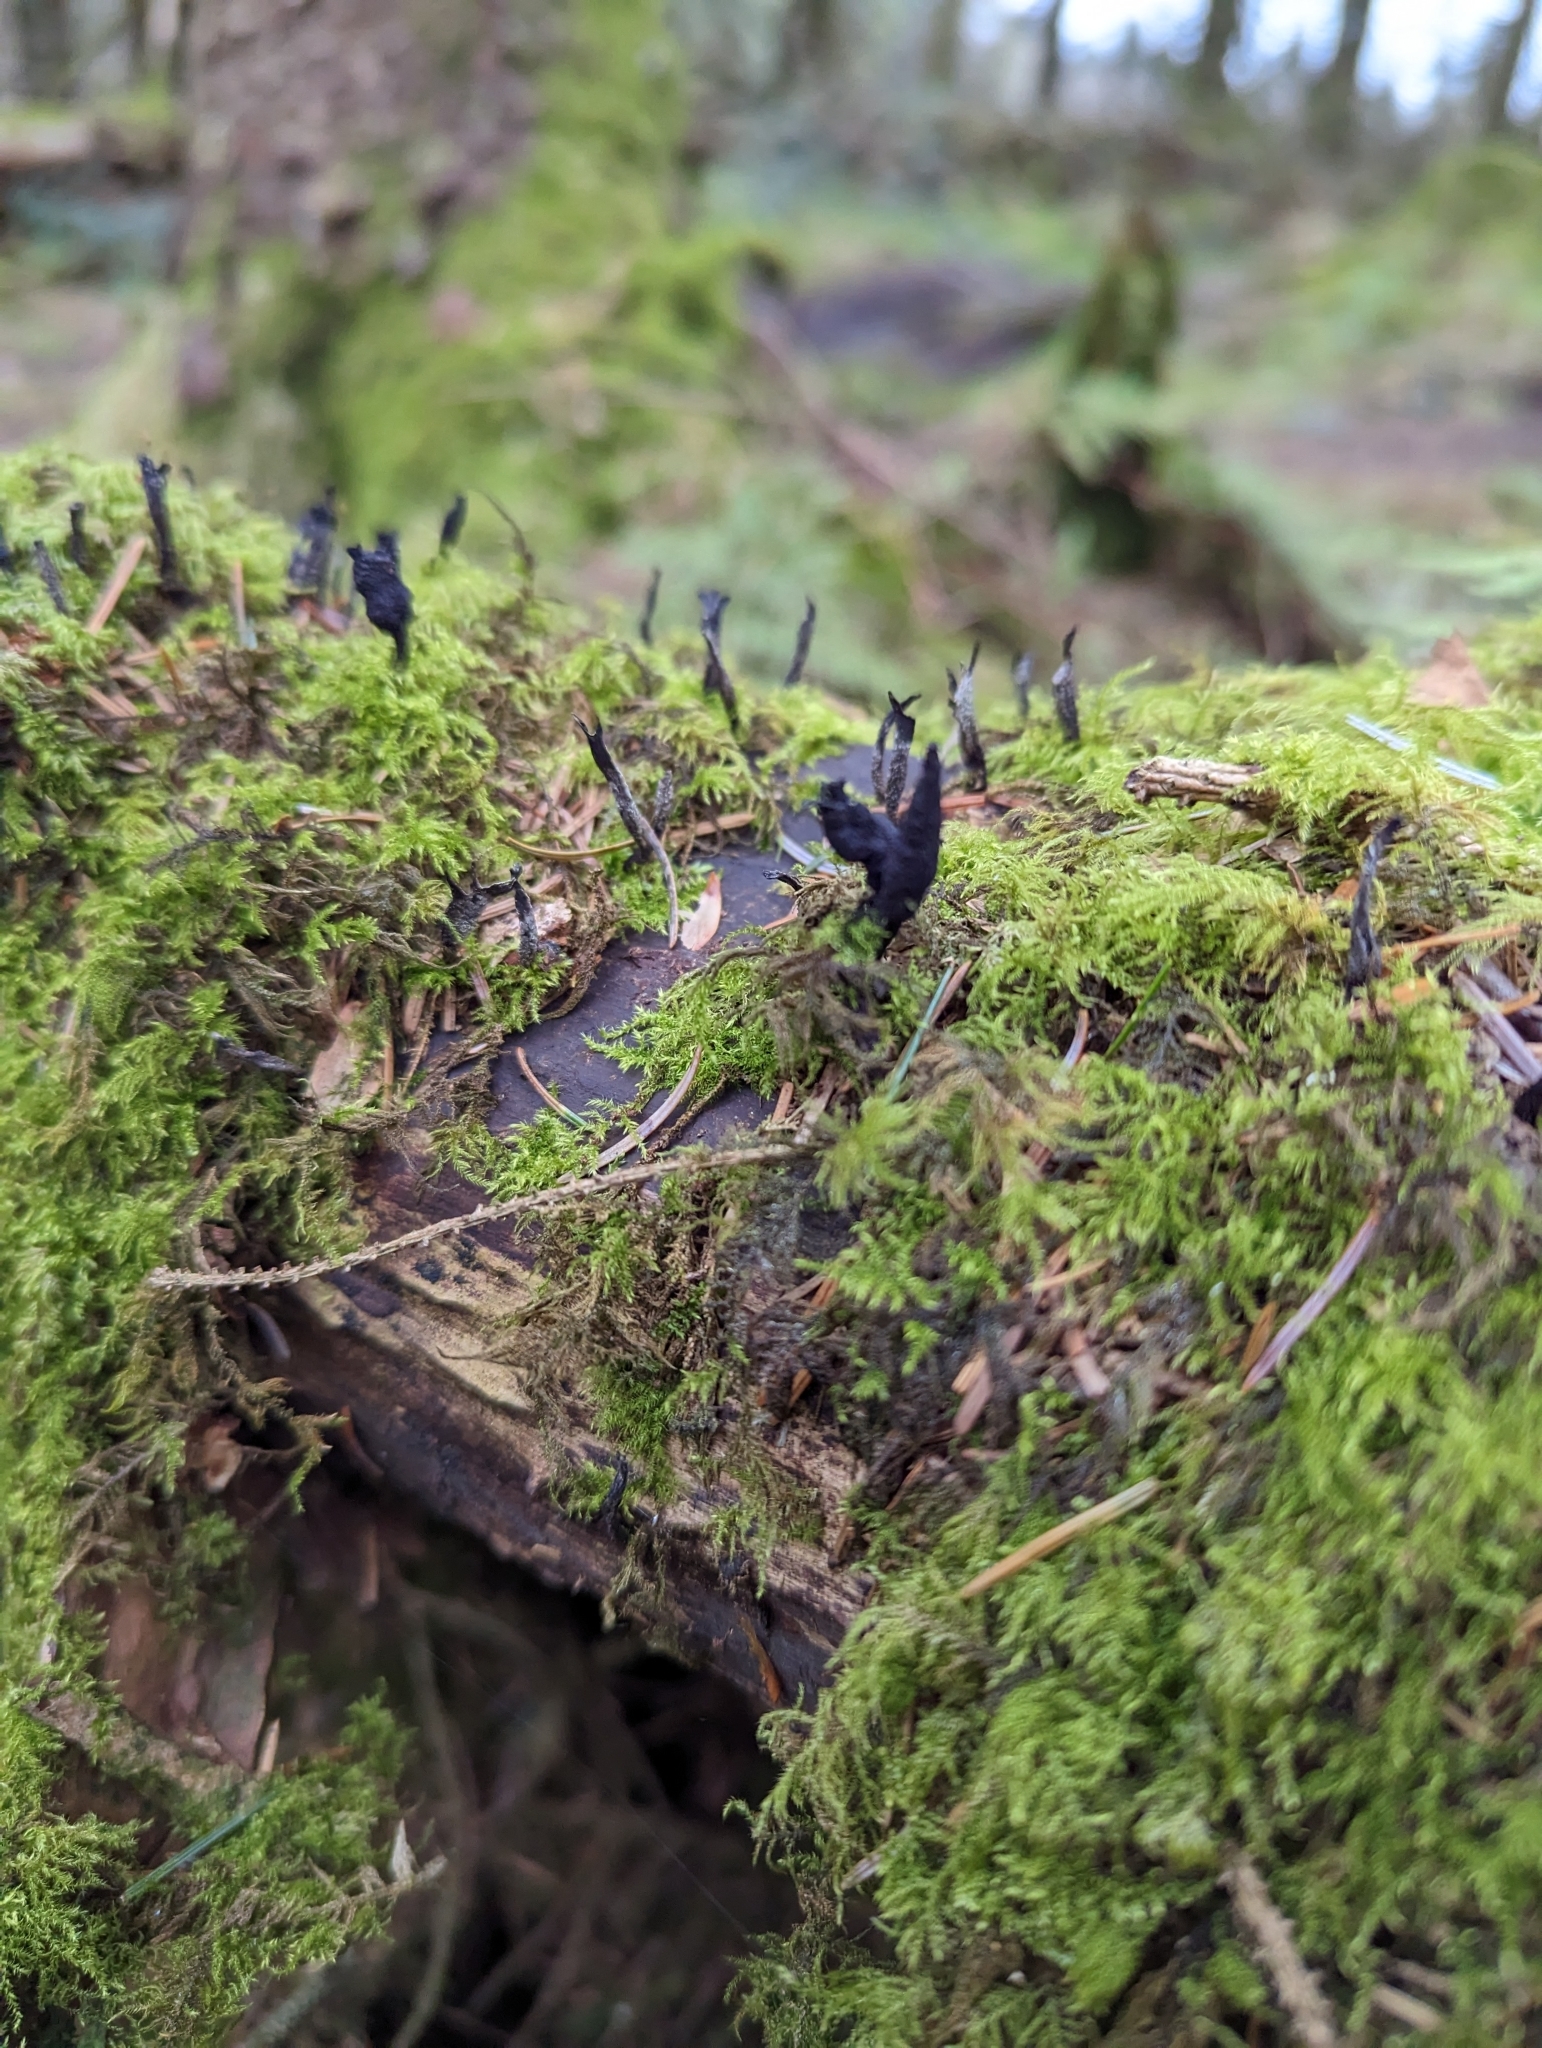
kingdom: Fungi
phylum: Ascomycota
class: Sordariomycetes
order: Xylariales
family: Xylariaceae
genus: Xylaria
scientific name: Xylaria hypoxylon
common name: Candle-snuff fungus
